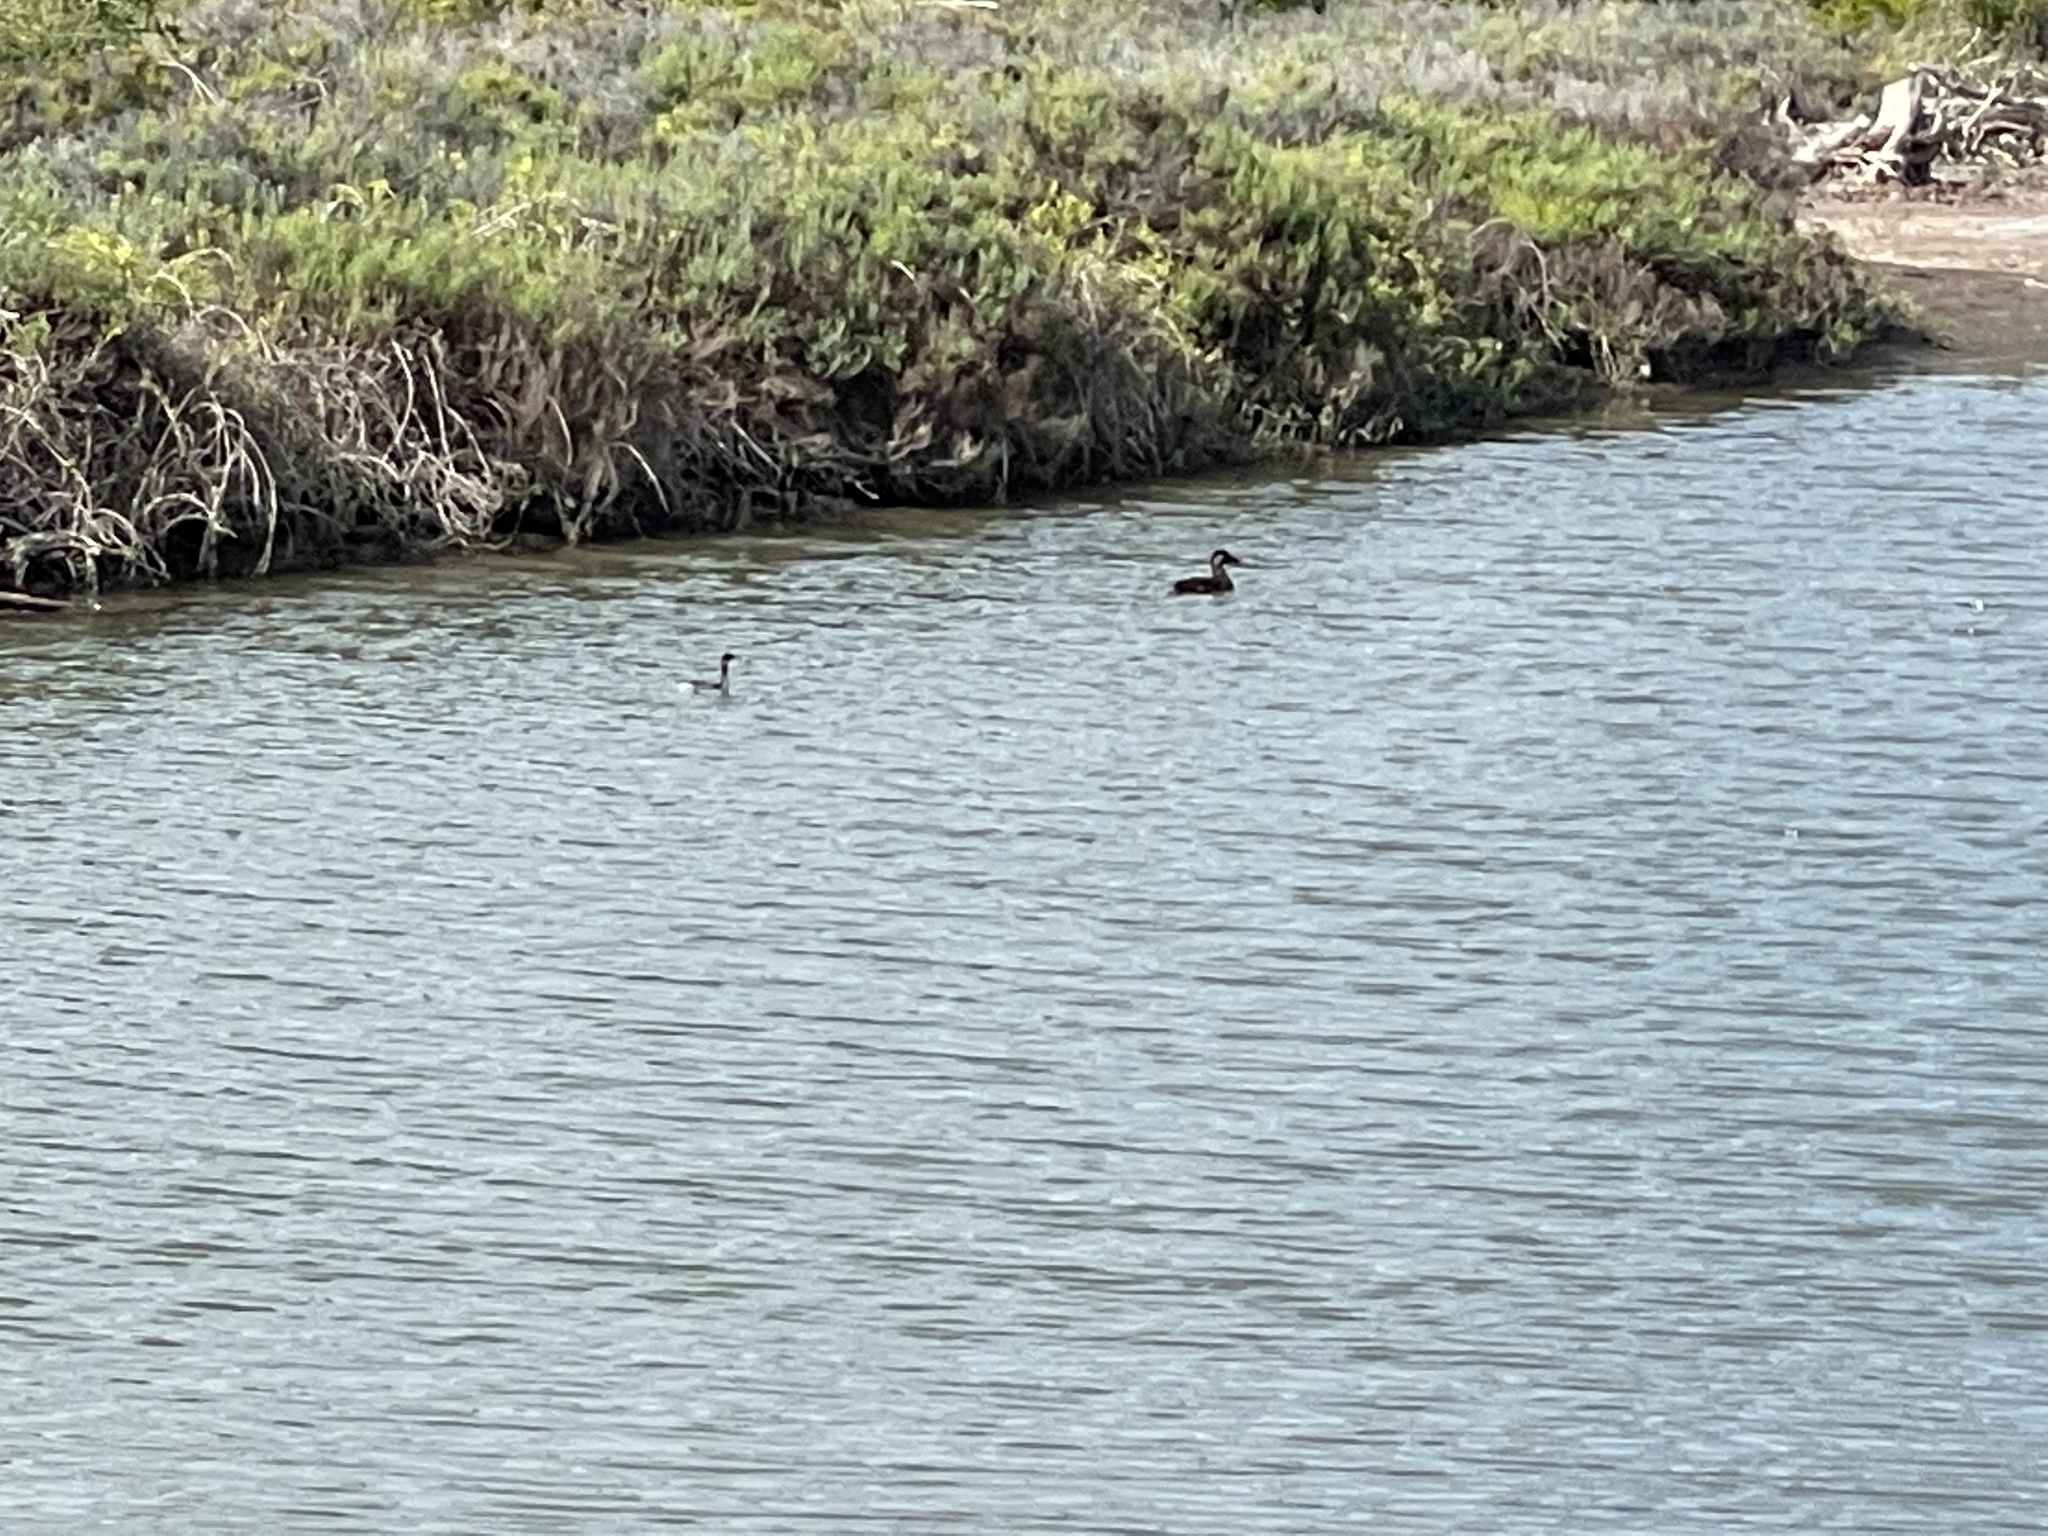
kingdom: Animalia
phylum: Chordata
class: Aves
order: Anseriformes
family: Anatidae
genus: Melanitta
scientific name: Melanitta perspicillata
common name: Surf scoter
